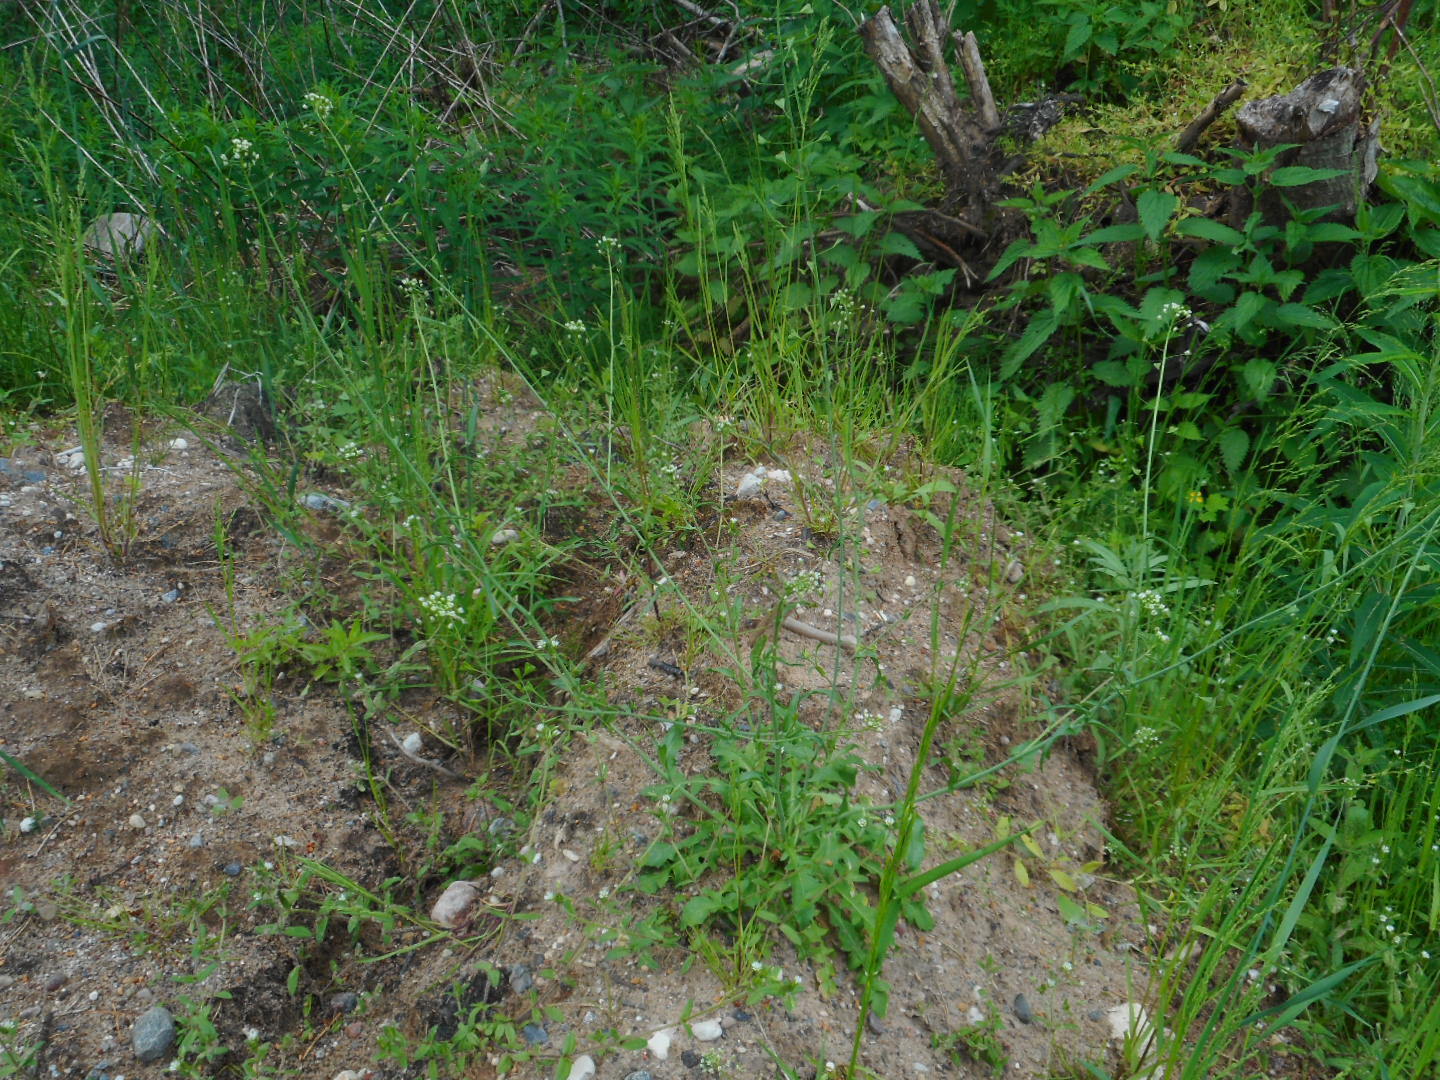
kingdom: Plantae
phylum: Tracheophyta
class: Magnoliopsida
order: Brassicales
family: Brassicaceae
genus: Capsella
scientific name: Capsella bursa-pastoris
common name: Shepherd's purse
